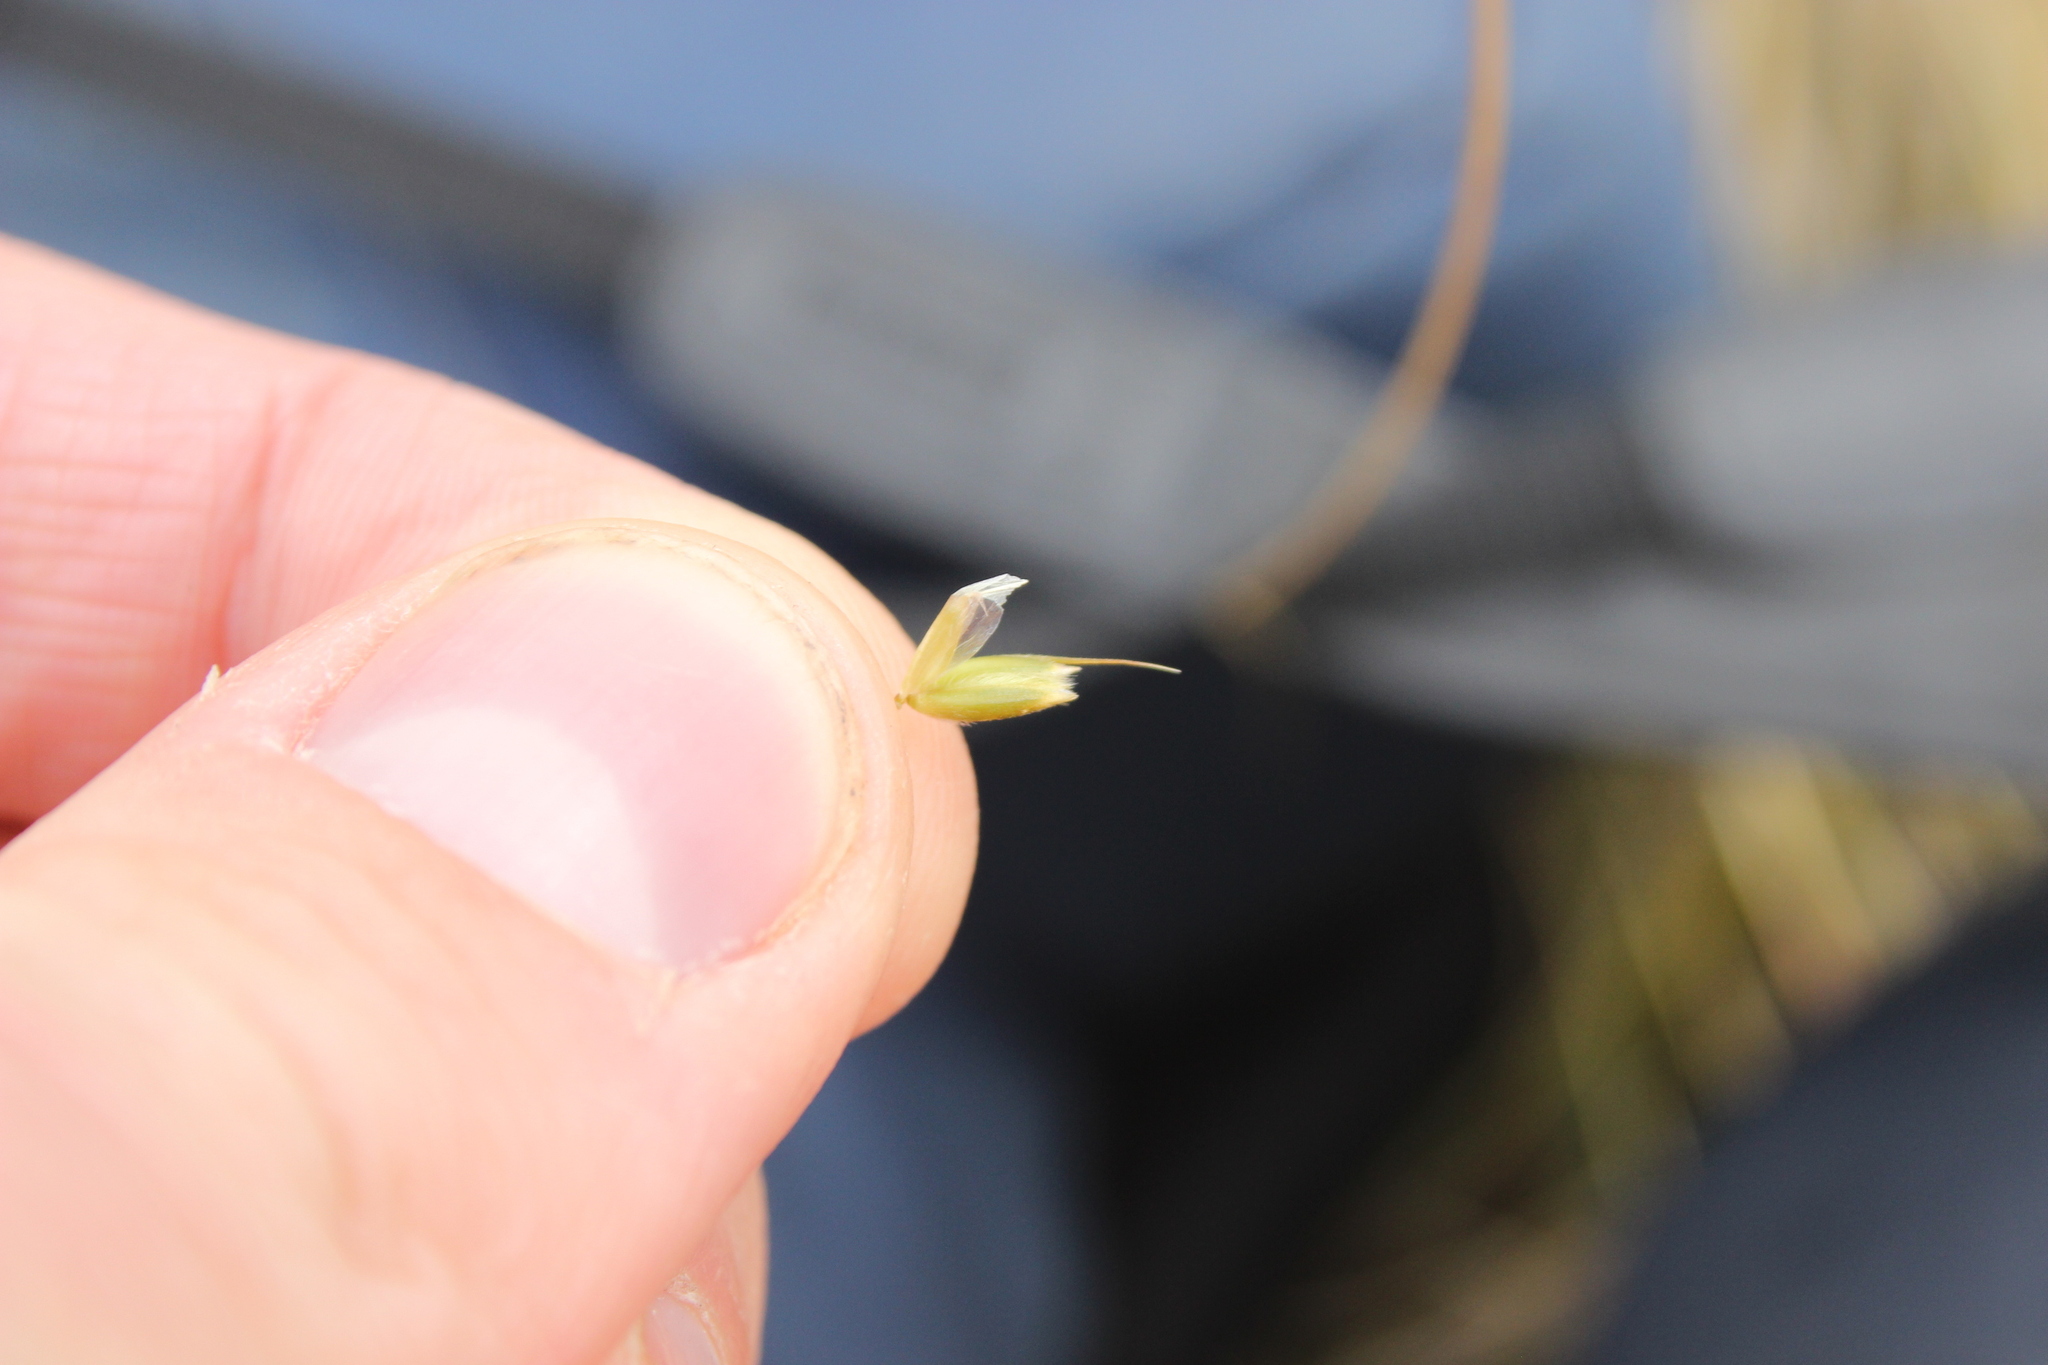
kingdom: Plantae
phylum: Tracheophyta
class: Liliopsida
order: Poales
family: Poaceae
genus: Chionochloa
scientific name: Chionochloa macra
